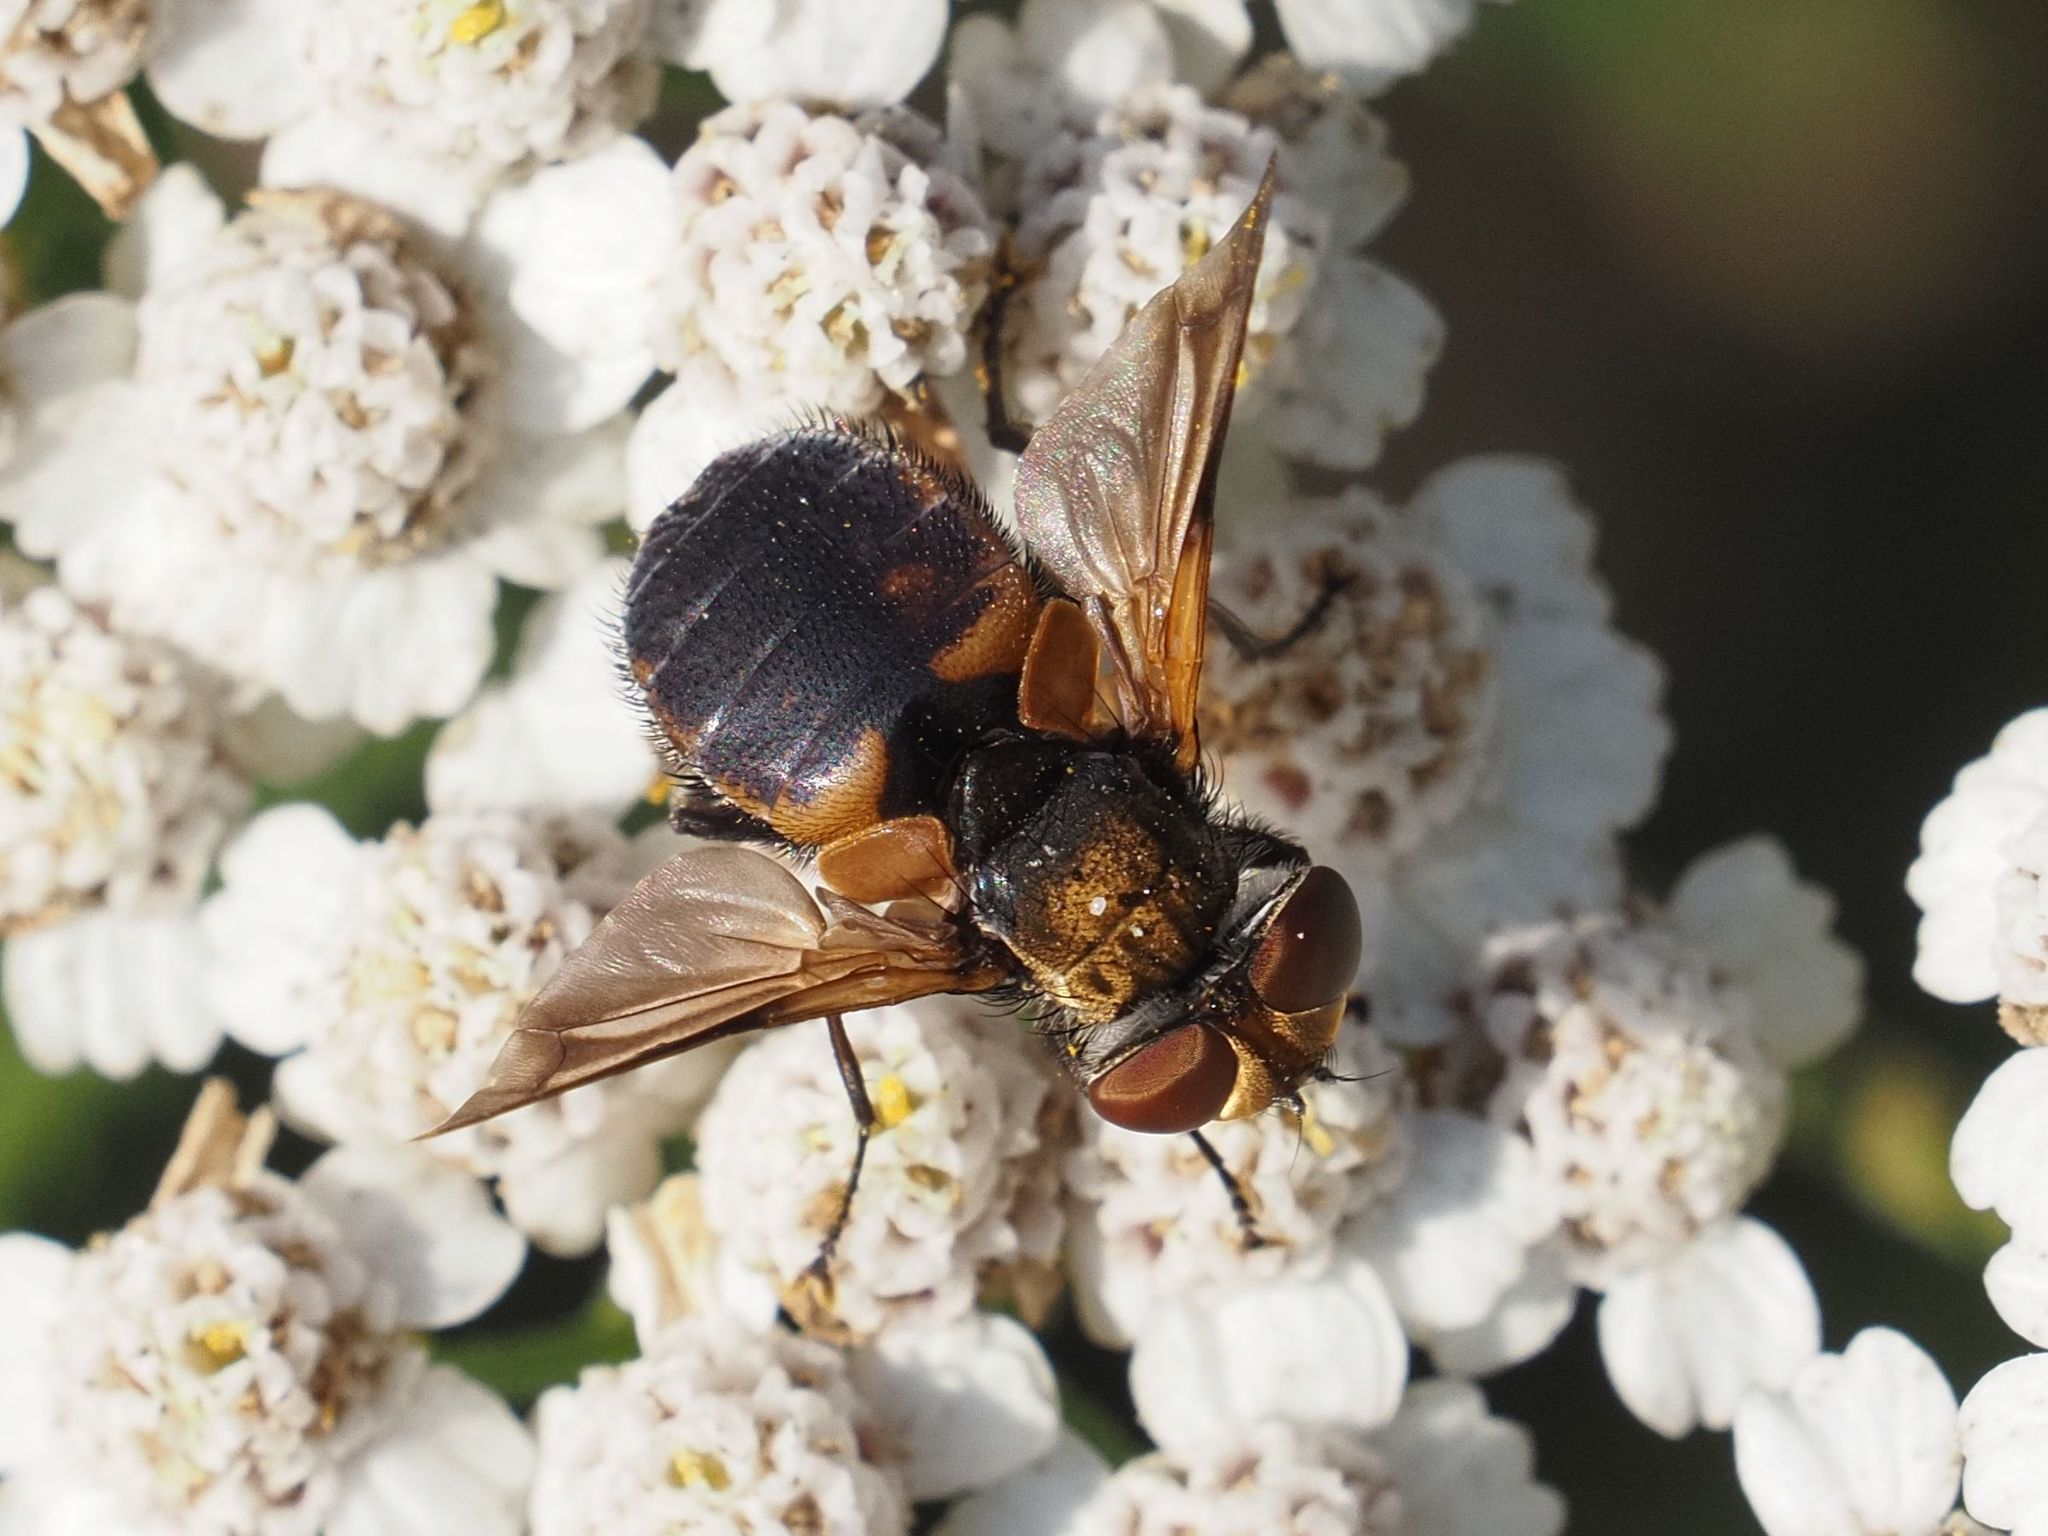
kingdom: Animalia
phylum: Arthropoda
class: Insecta
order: Diptera
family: Tachinidae
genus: Ectophasia
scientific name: Ectophasia crassipennis
